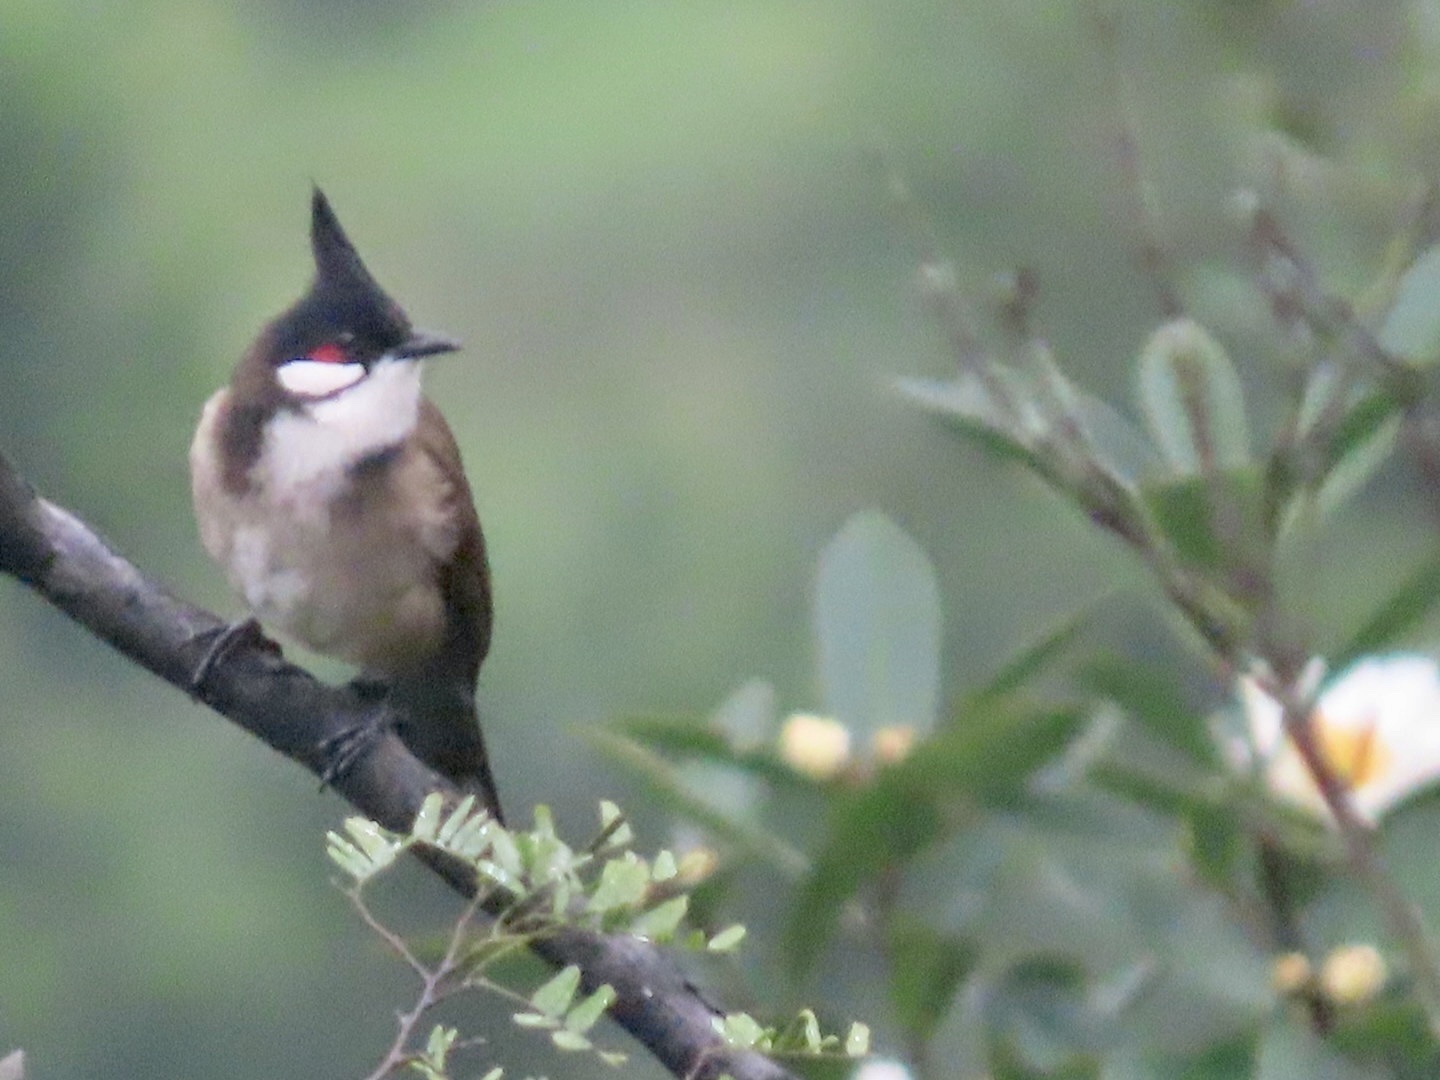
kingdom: Animalia
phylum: Chordata
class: Aves
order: Passeriformes
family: Pycnonotidae
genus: Pycnonotus
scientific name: Pycnonotus jocosus
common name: Red-whiskered bulbul
